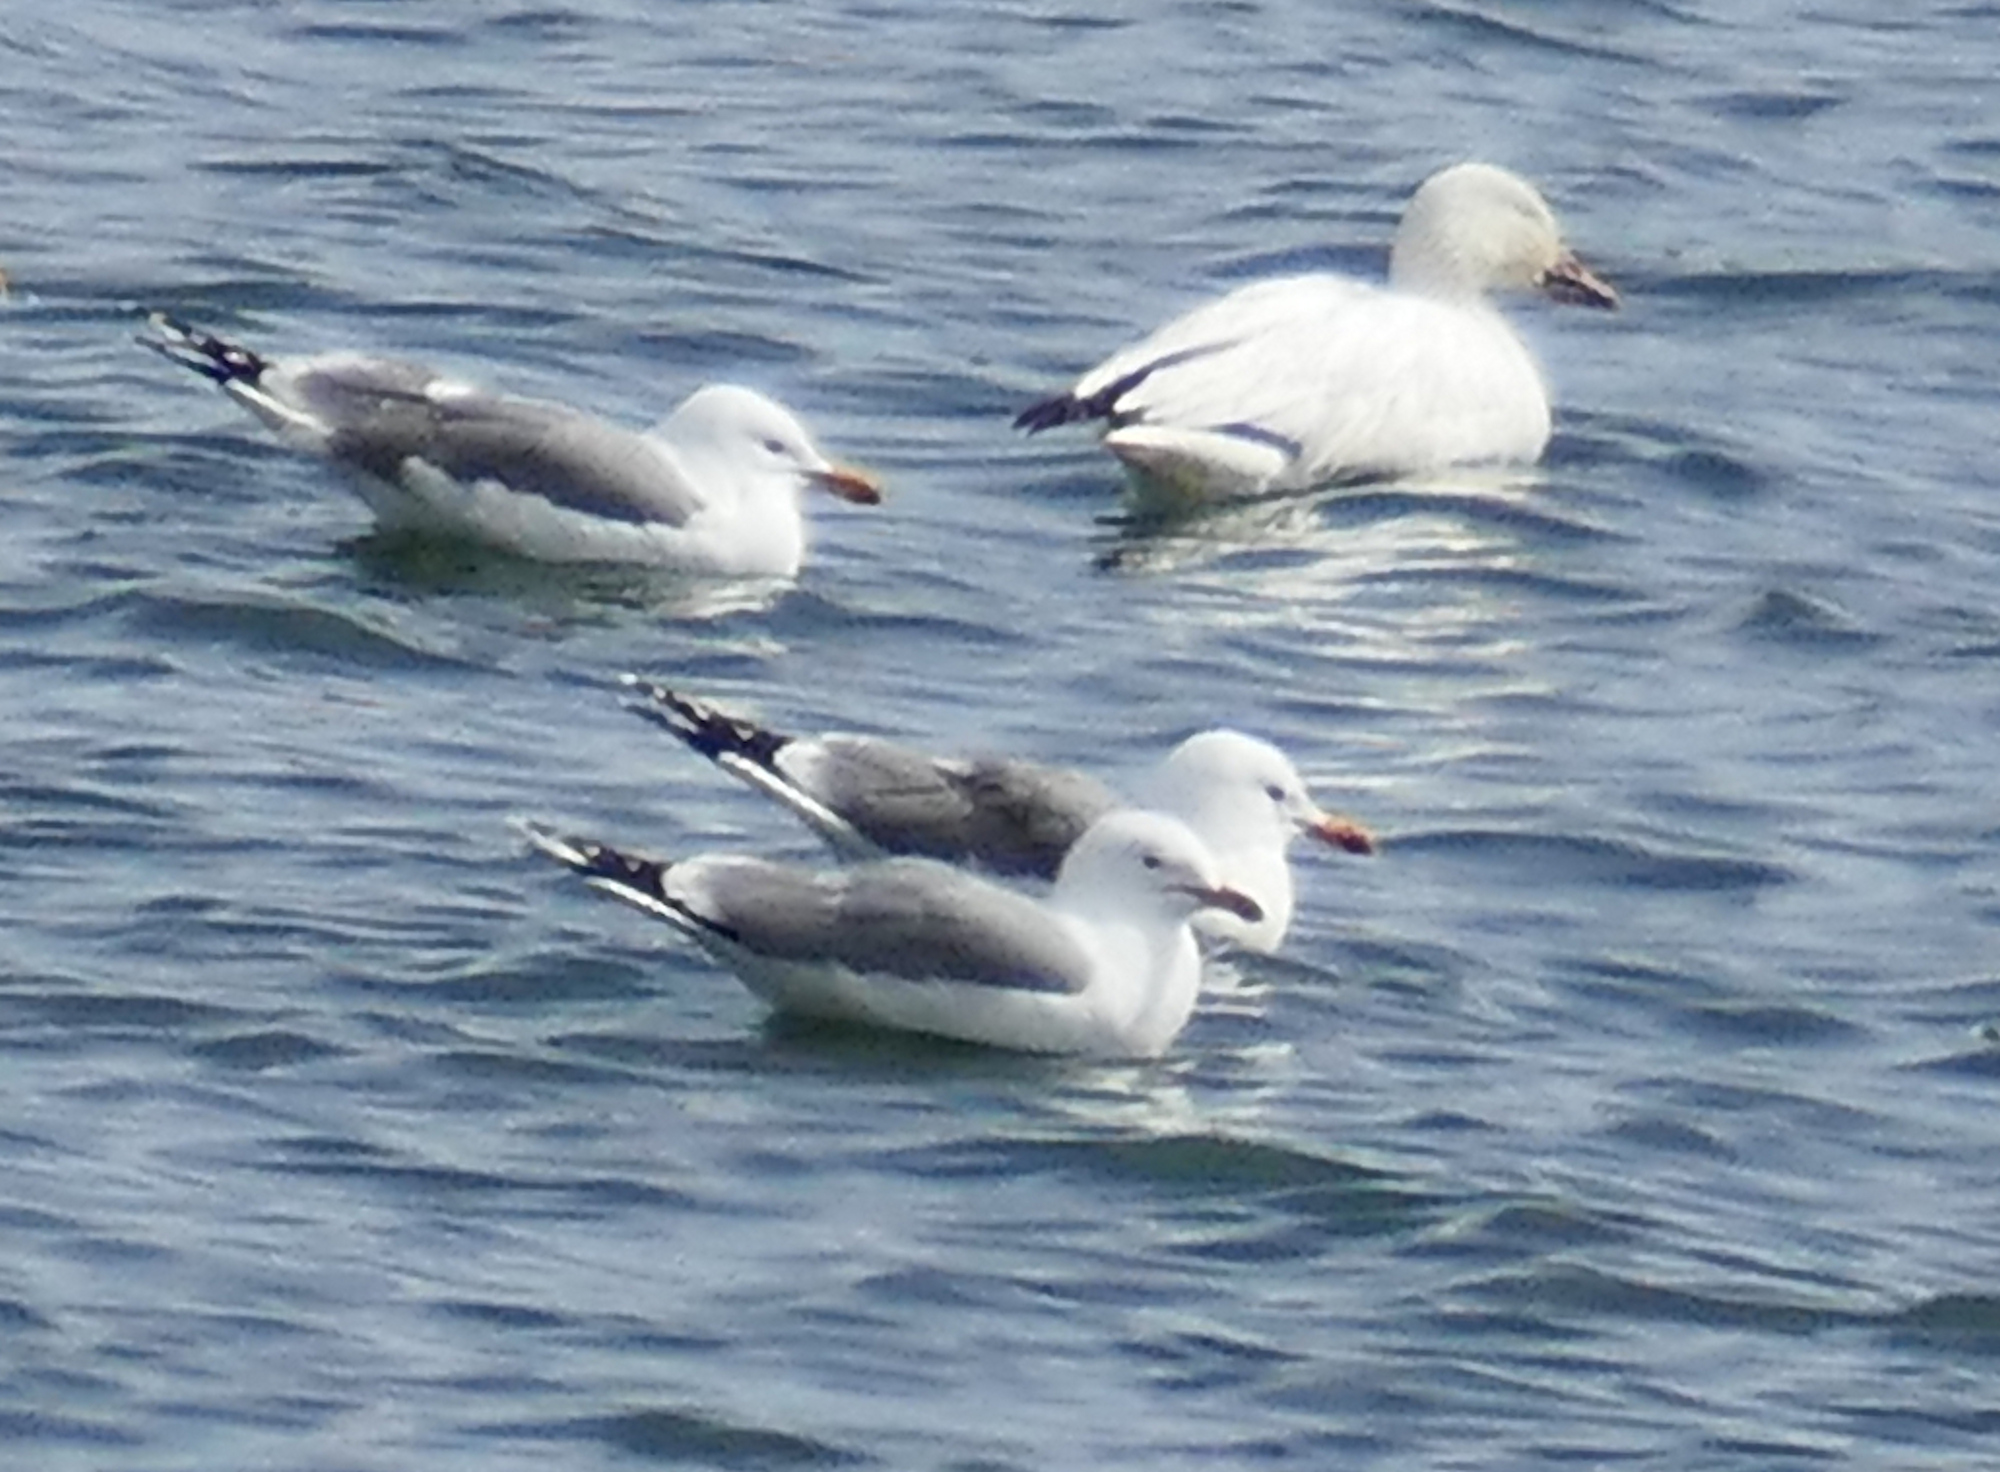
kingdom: Animalia
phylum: Chordata
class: Aves
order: Charadriiformes
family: Laridae
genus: Larus
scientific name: Larus californicus
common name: California gull
